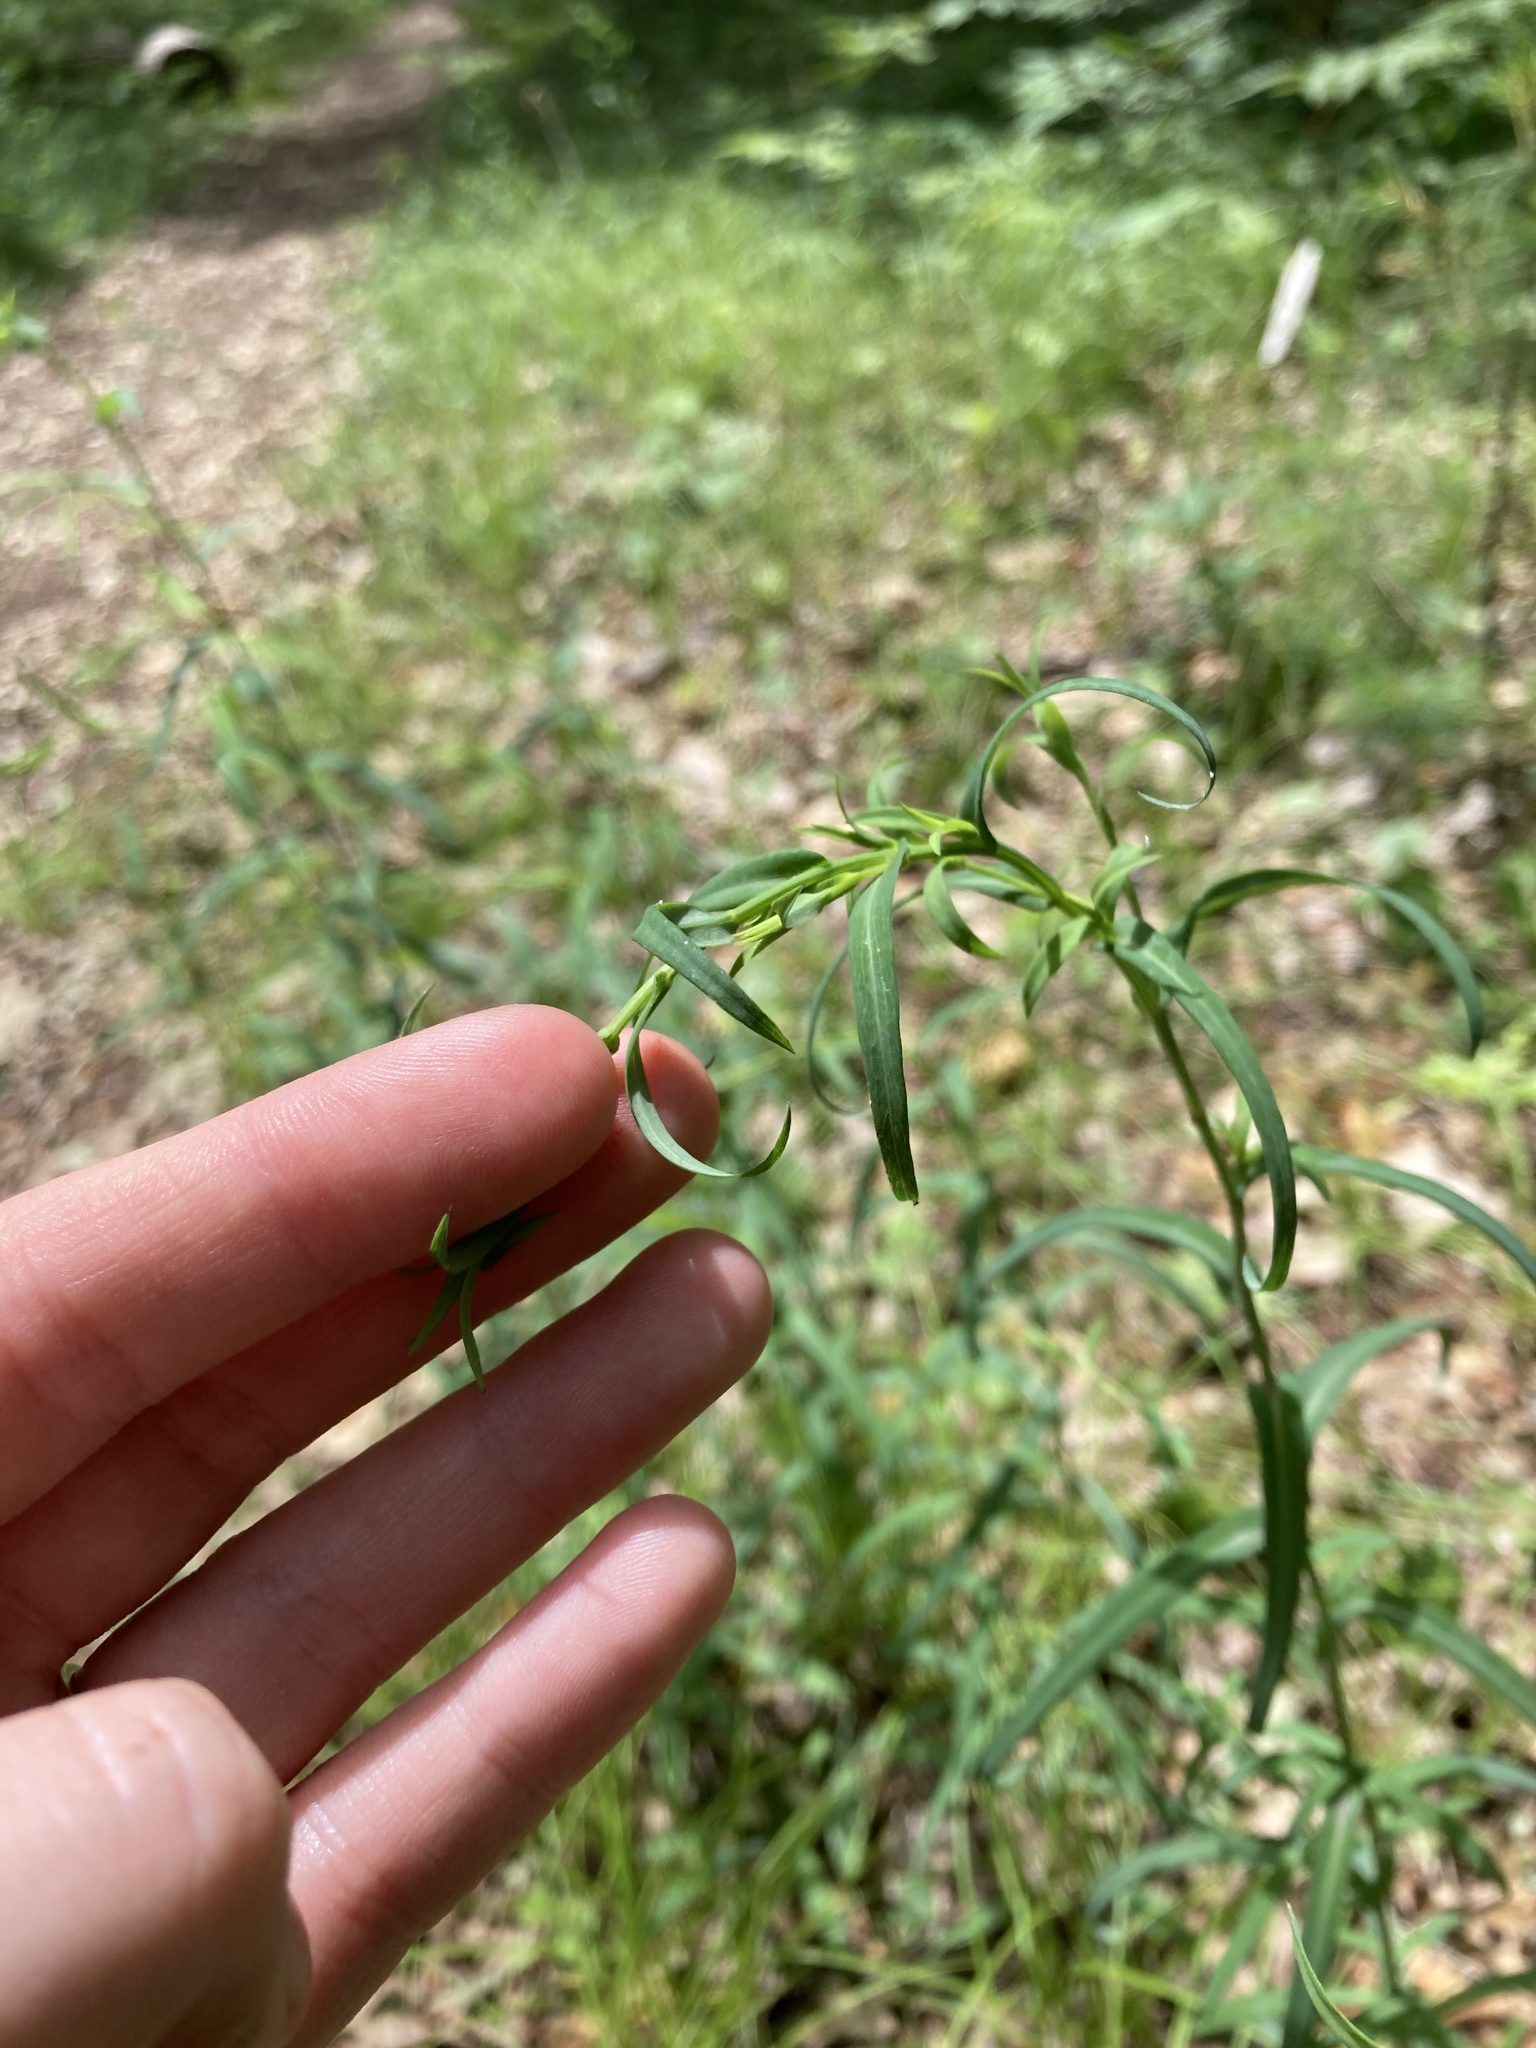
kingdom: Plantae
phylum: Tracheophyta
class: Magnoliopsida
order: Asterales
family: Asteraceae
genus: Symphyotrichum
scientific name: Symphyotrichum laeve
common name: Glaucous aster
